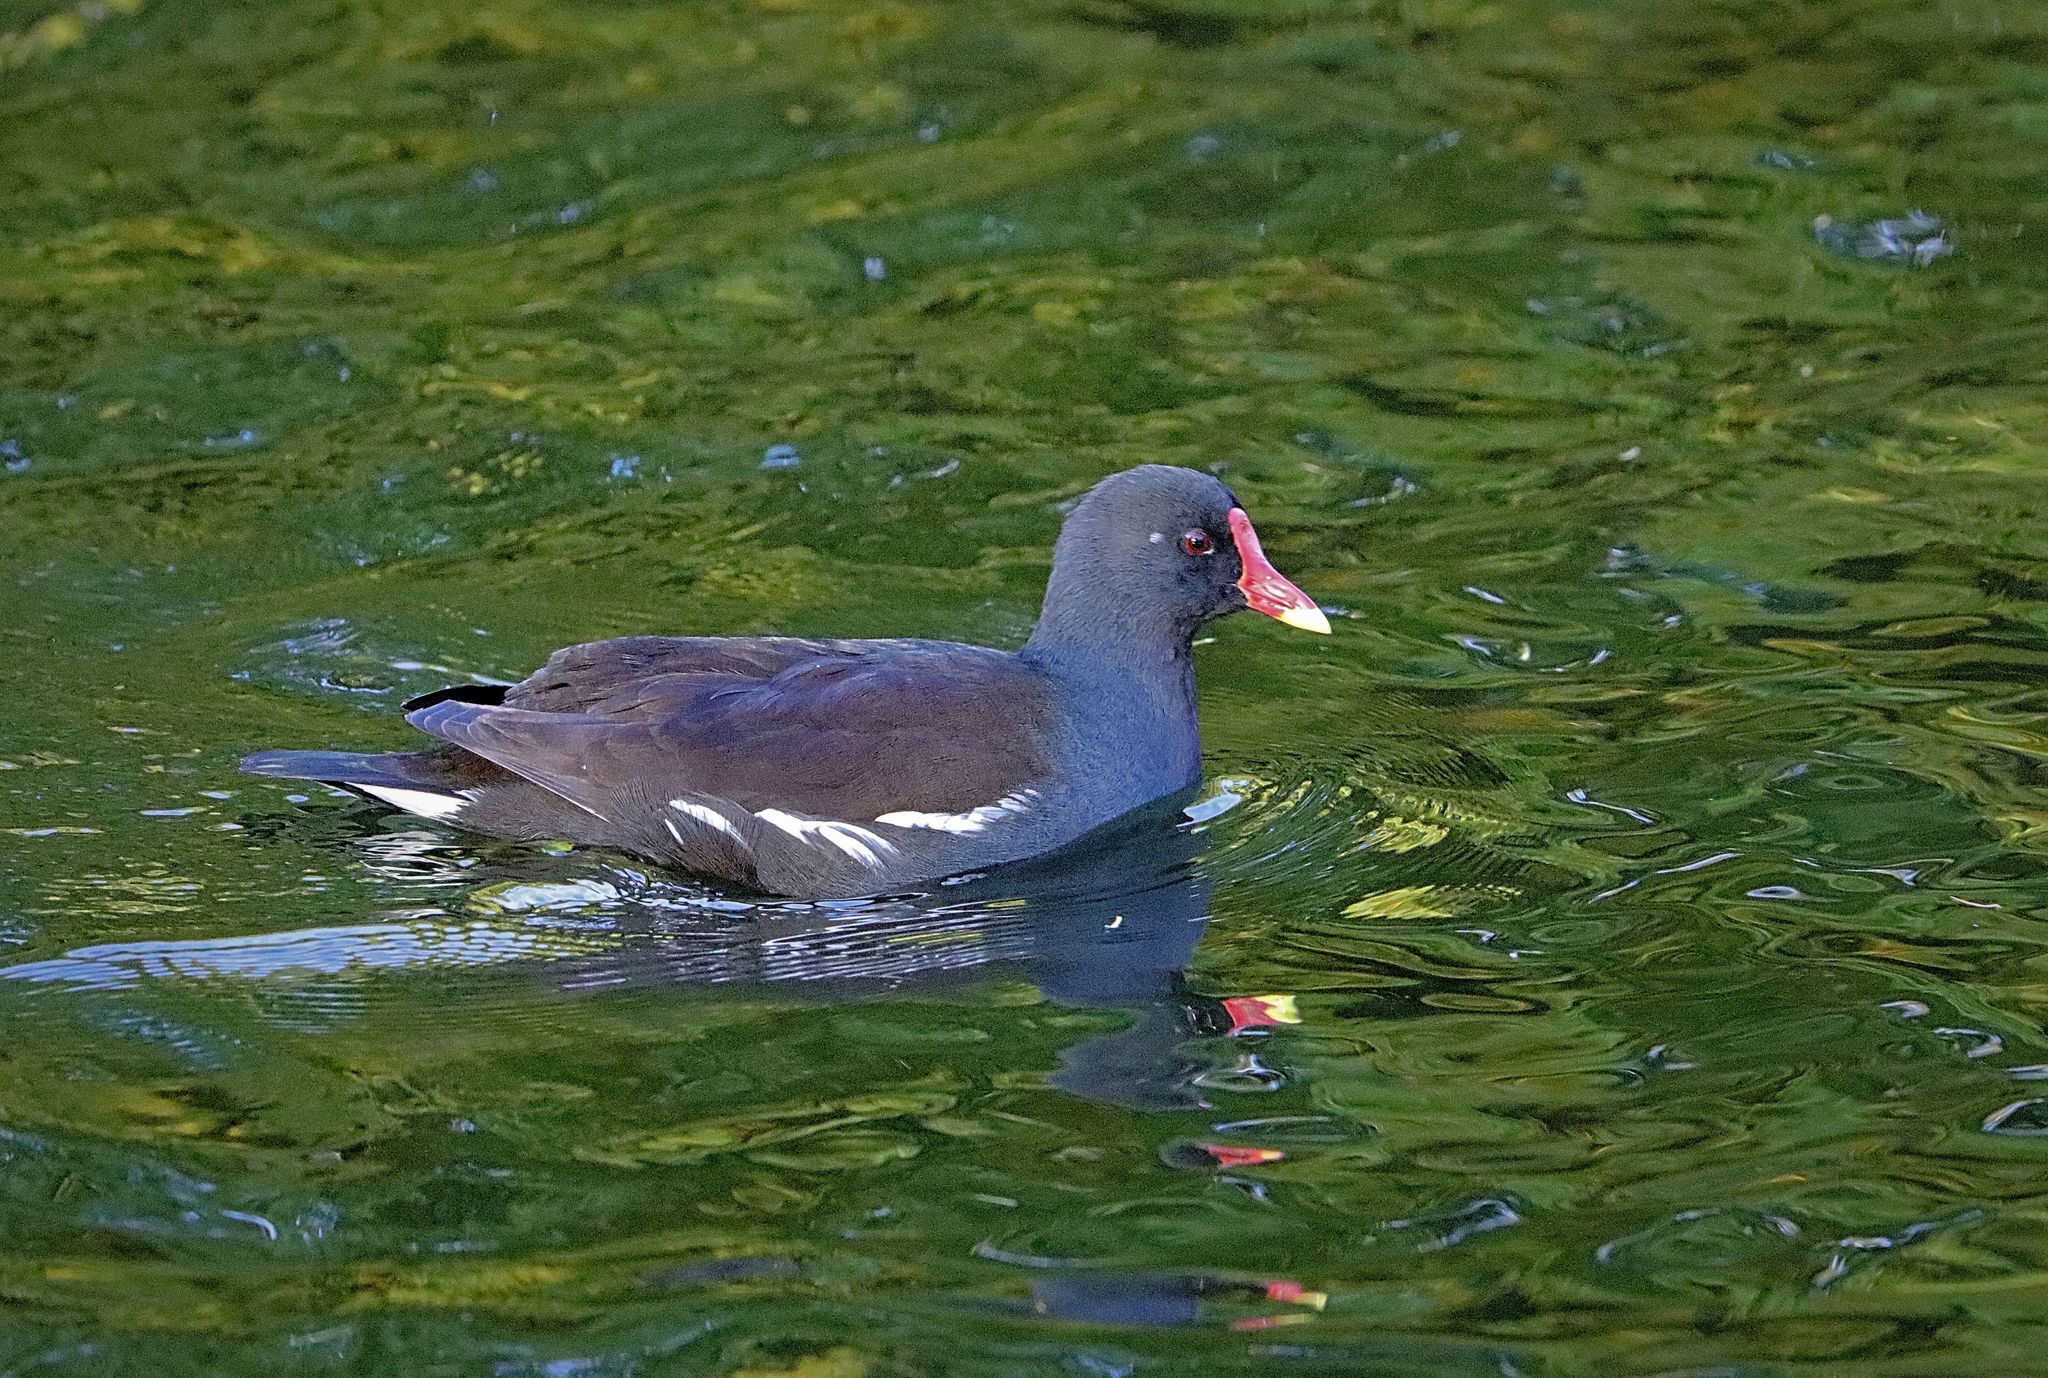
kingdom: Animalia
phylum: Chordata
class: Aves
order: Gruiformes
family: Rallidae
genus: Gallinula
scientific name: Gallinula chloropus
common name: Common moorhen
